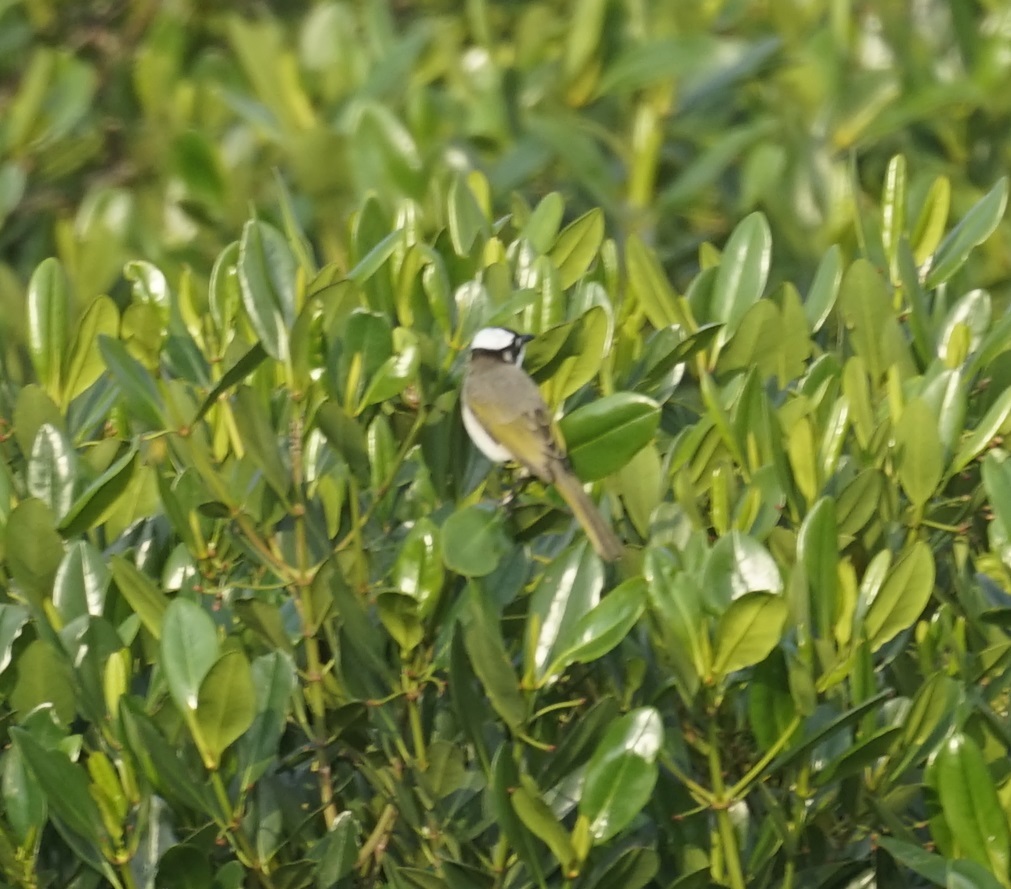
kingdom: Animalia
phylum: Chordata
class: Aves
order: Passeriformes
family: Pycnonotidae
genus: Pycnonotus
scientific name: Pycnonotus sinensis
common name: Light-vented bulbul
